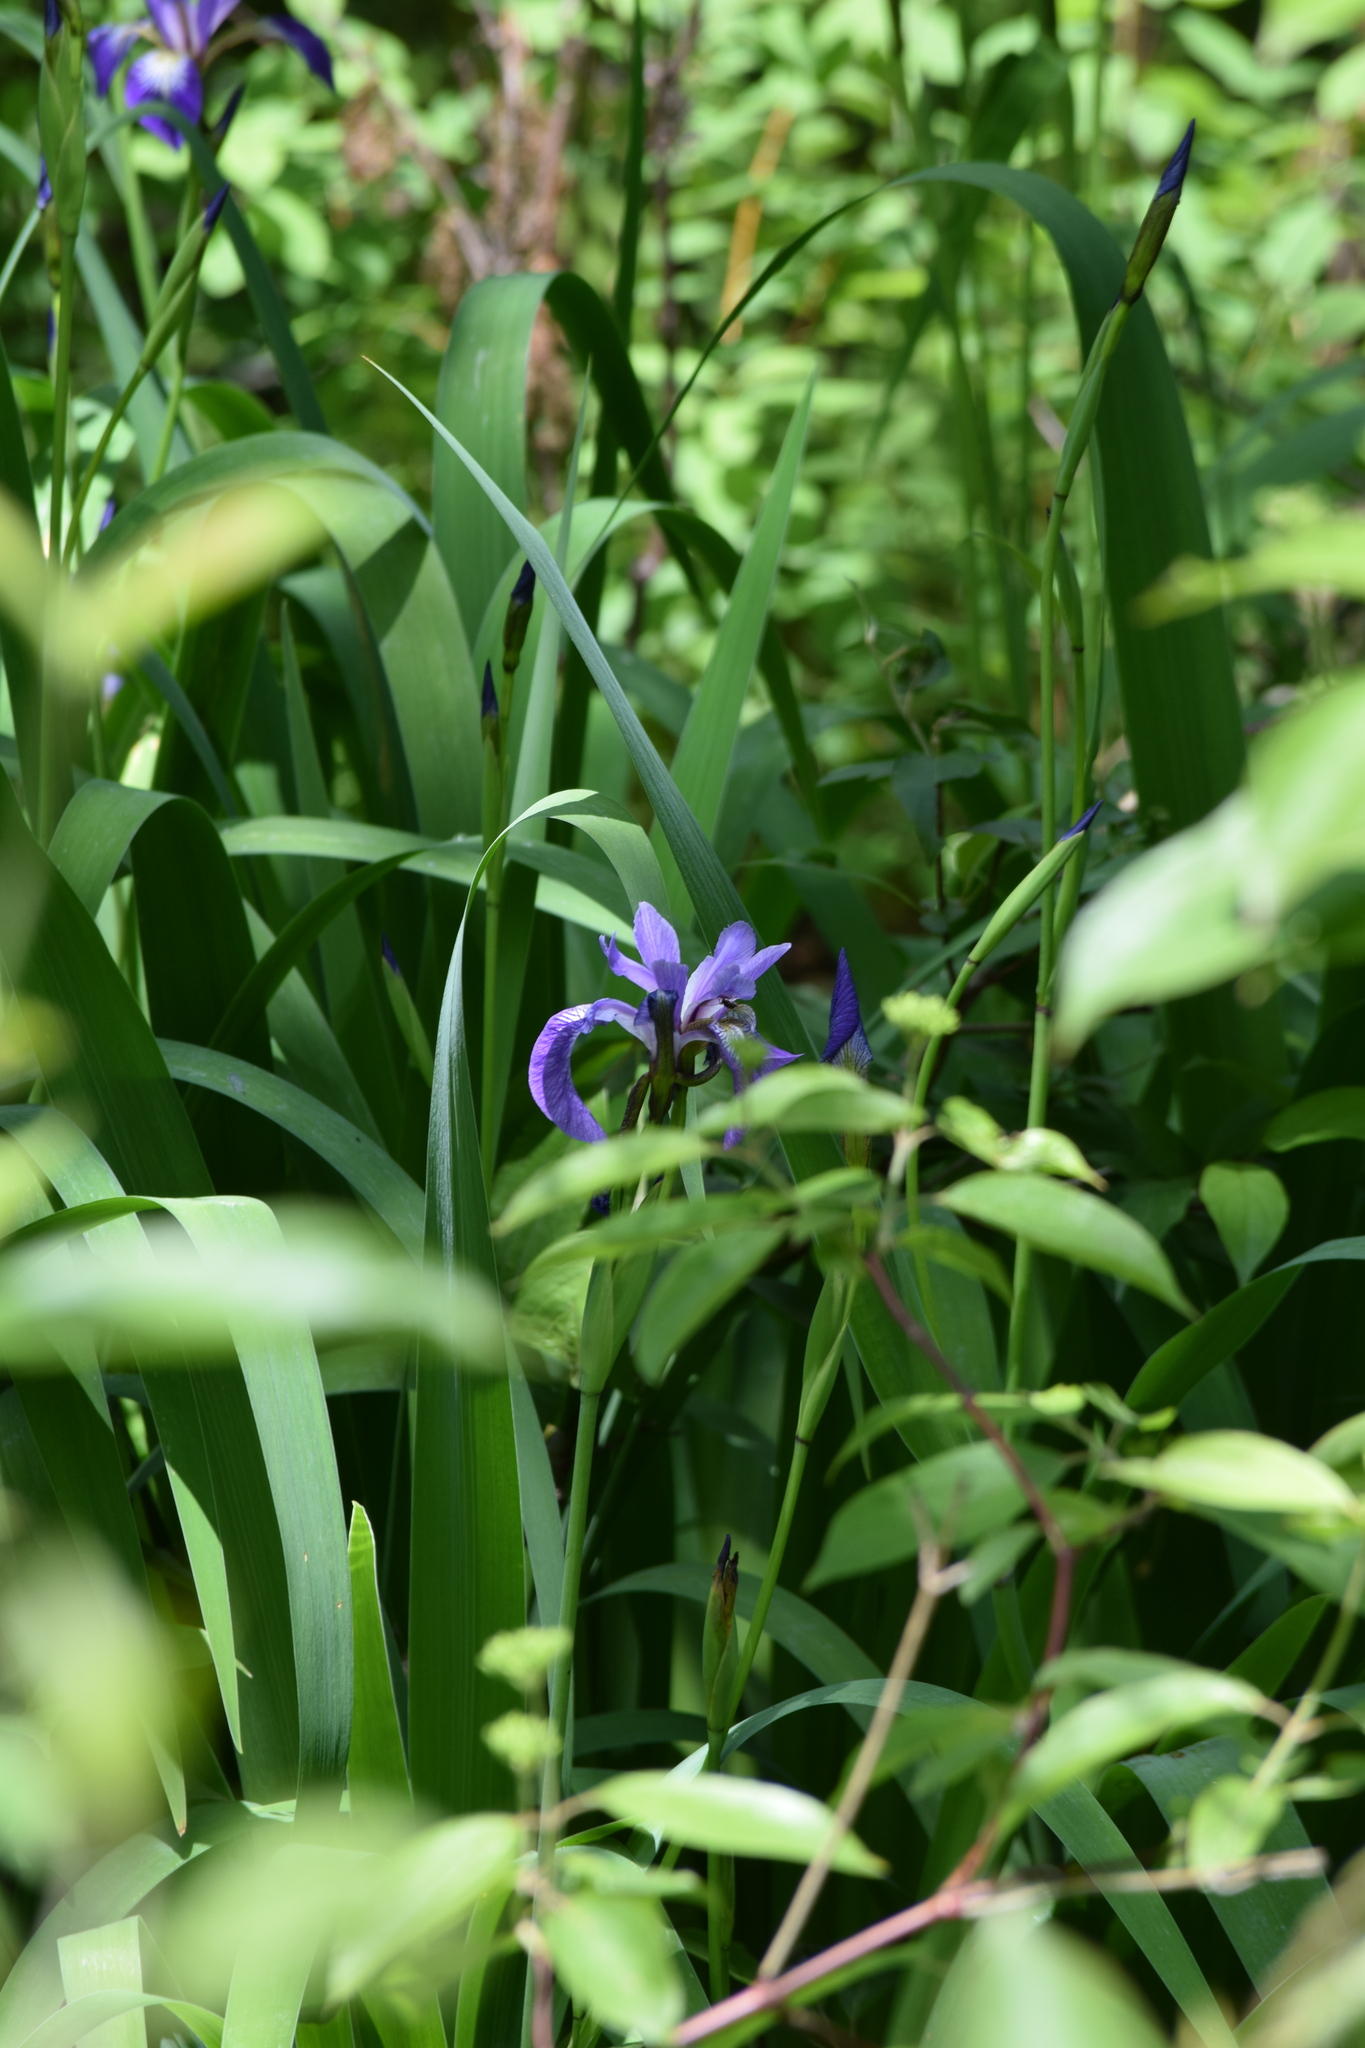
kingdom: Plantae
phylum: Tracheophyta
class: Liliopsida
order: Asparagales
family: Iridaceae
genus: Iris
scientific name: Iris versicolor
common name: Purple iris
